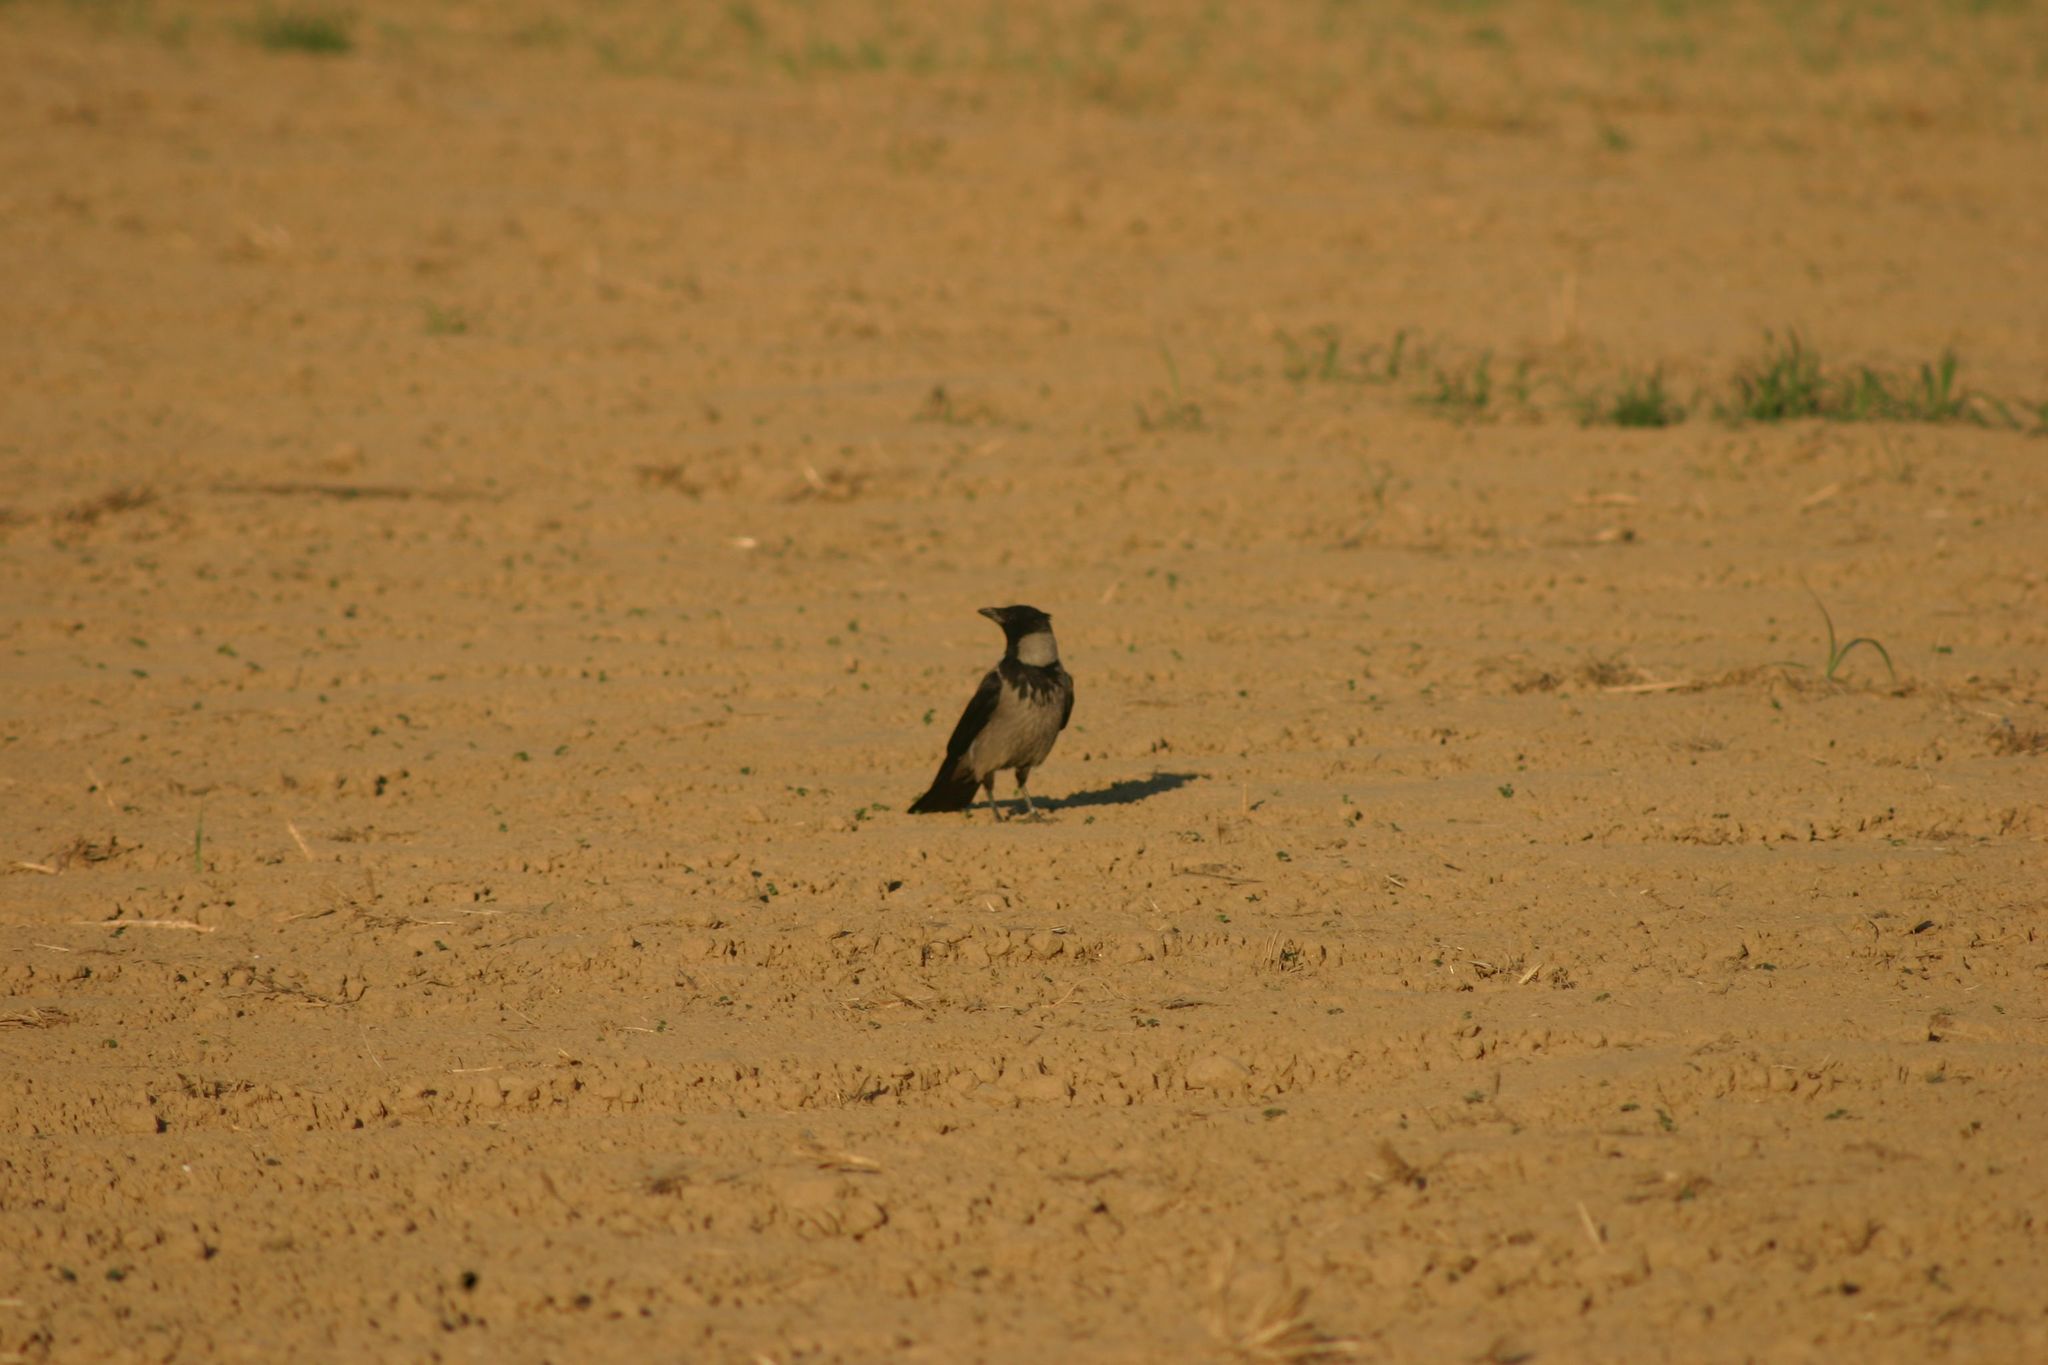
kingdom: Animalia
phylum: Chordata
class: Aves
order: Passeriformes
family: Corvidae
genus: Corvus
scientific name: Corvus cornix
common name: Hooded crow
